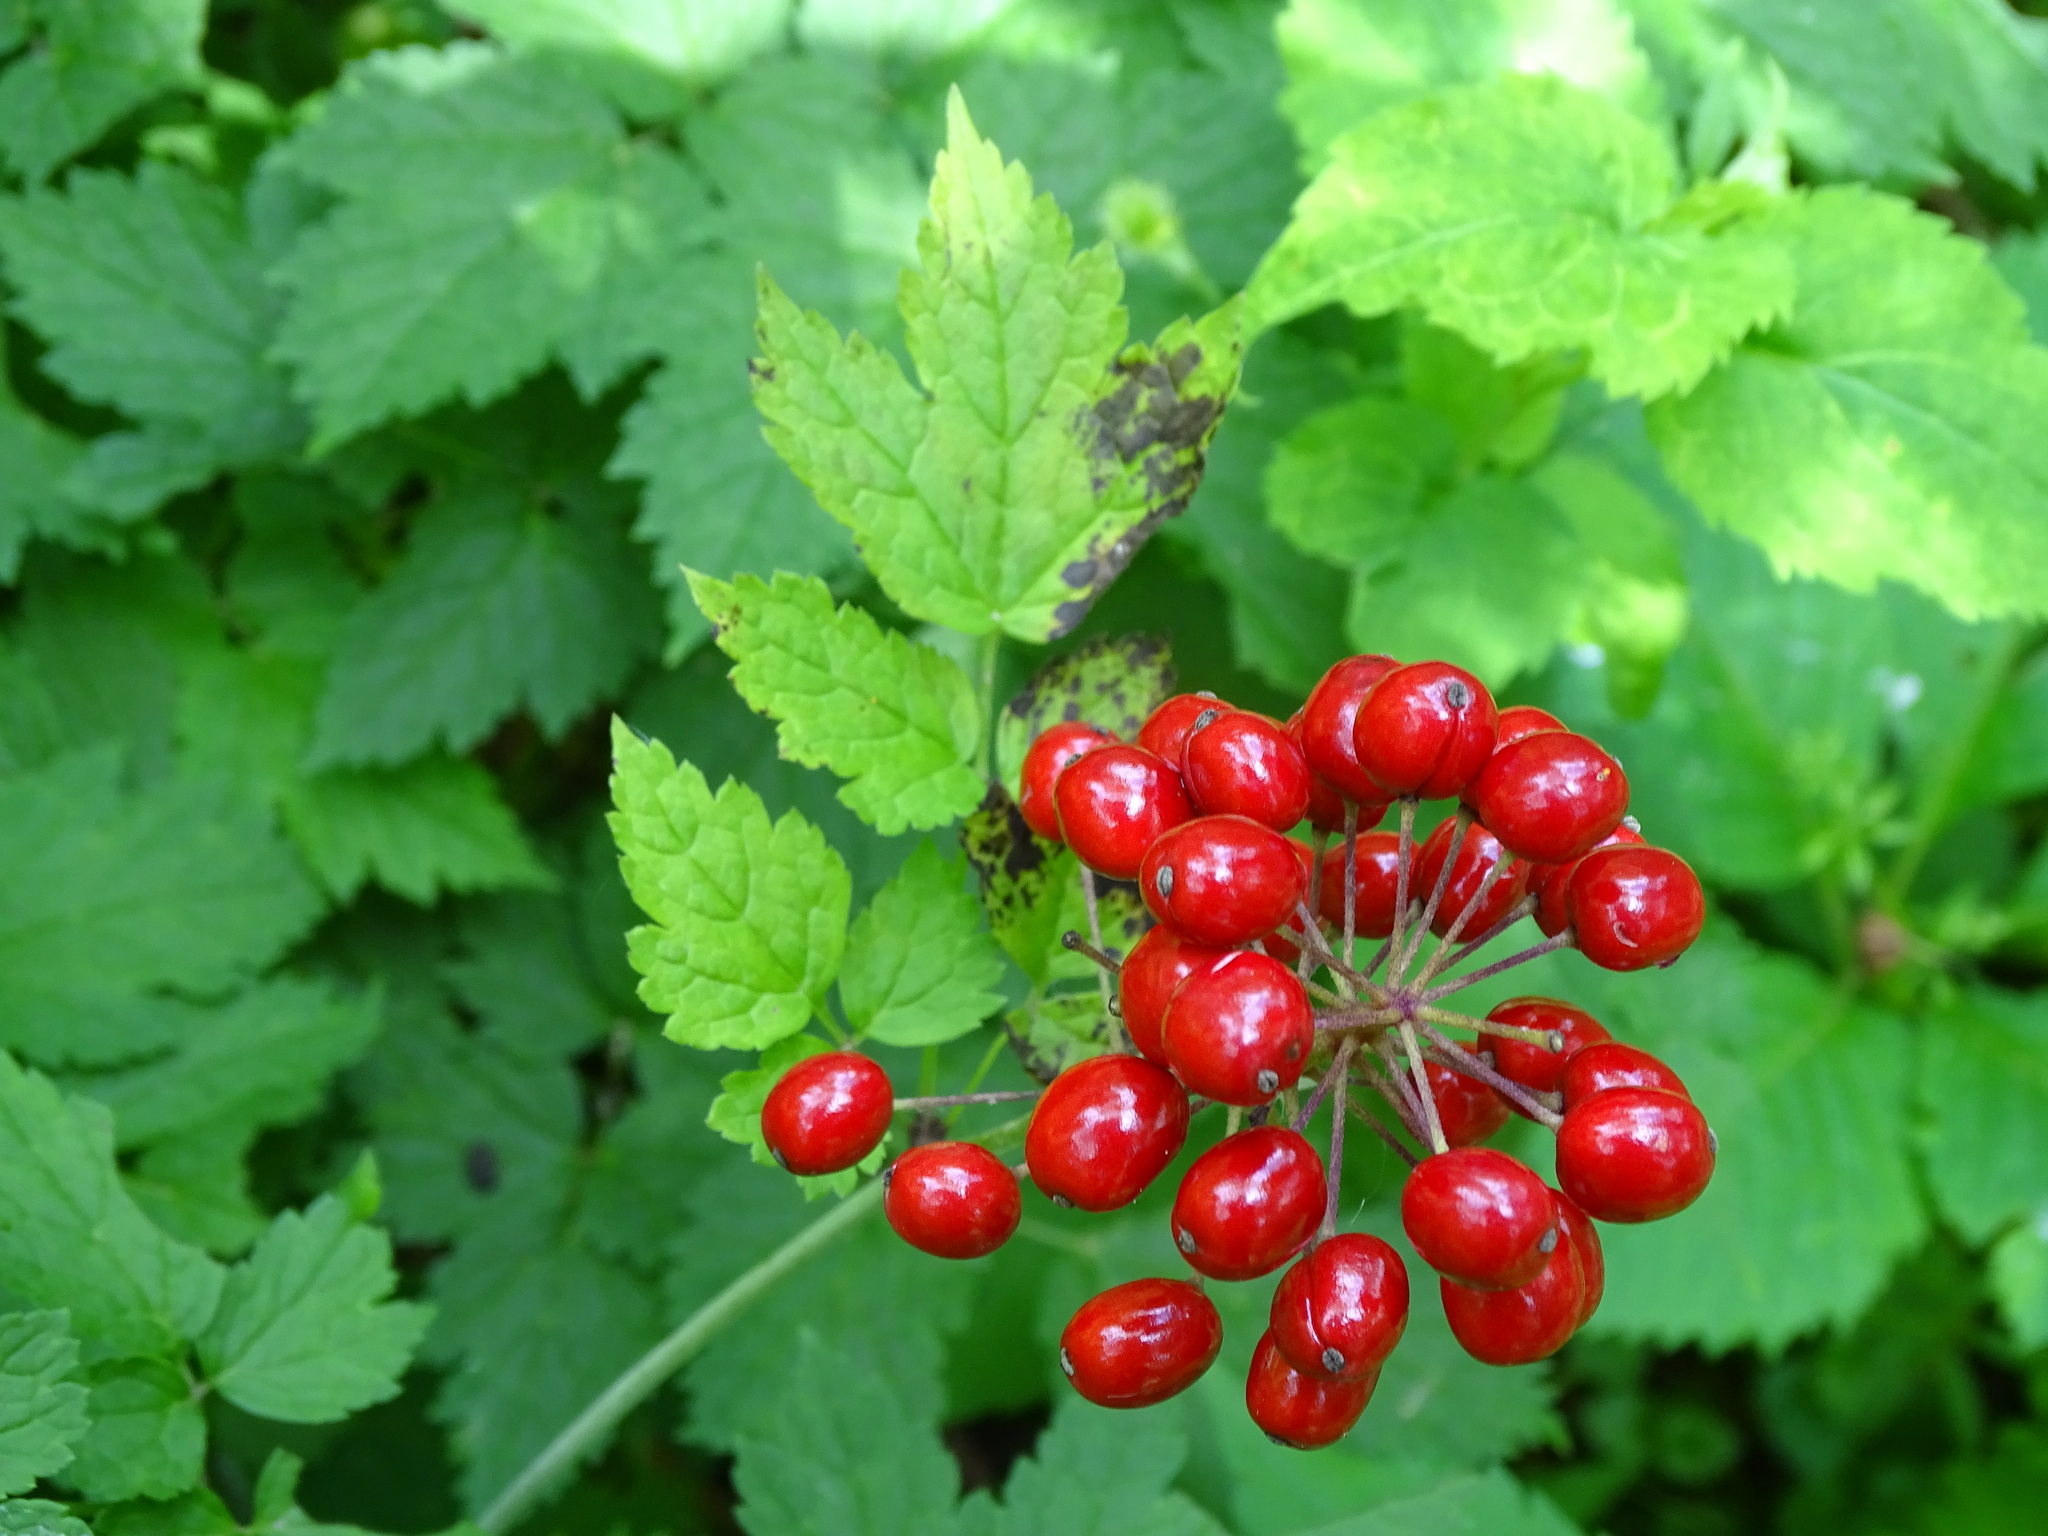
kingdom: Plantae
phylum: Tracheophyta
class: Magnoliopsida
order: Ranunculales
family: Ranunculaceae
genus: Actaea
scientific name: Actaea rubra
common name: Red baneberry
